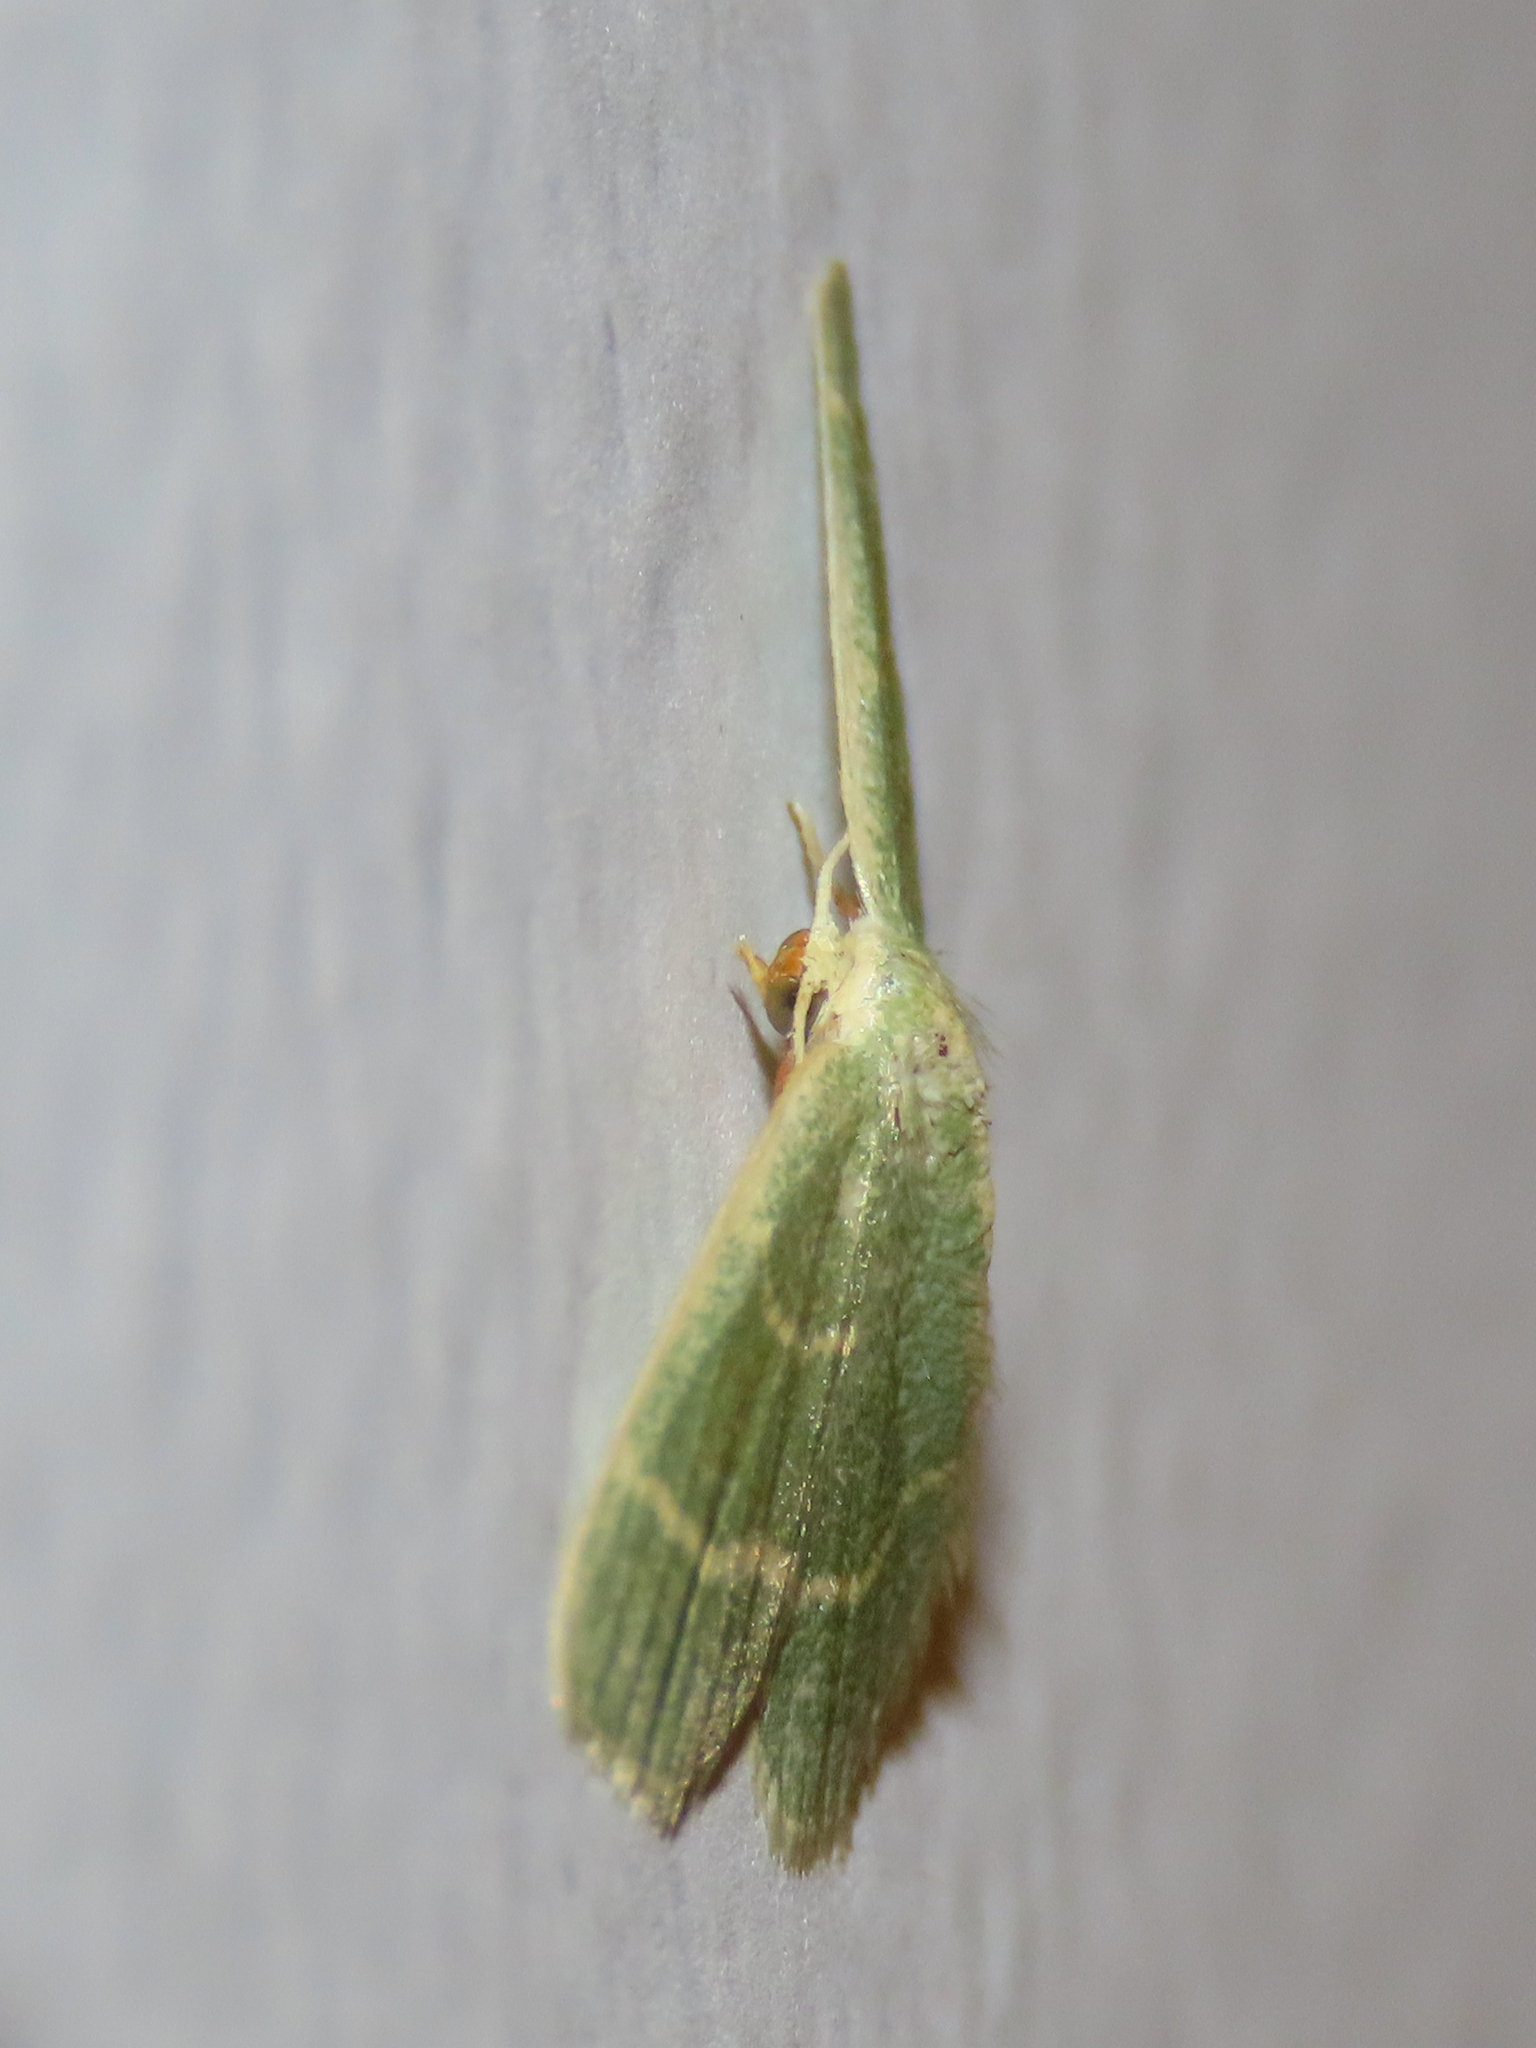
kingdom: Animalia
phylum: Arthropoda
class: Insecta
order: Lepidoptera
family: Geometridae
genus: Chlorochlamys
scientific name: Chlorochlamys chloroleucaria
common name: Blackberry looper
